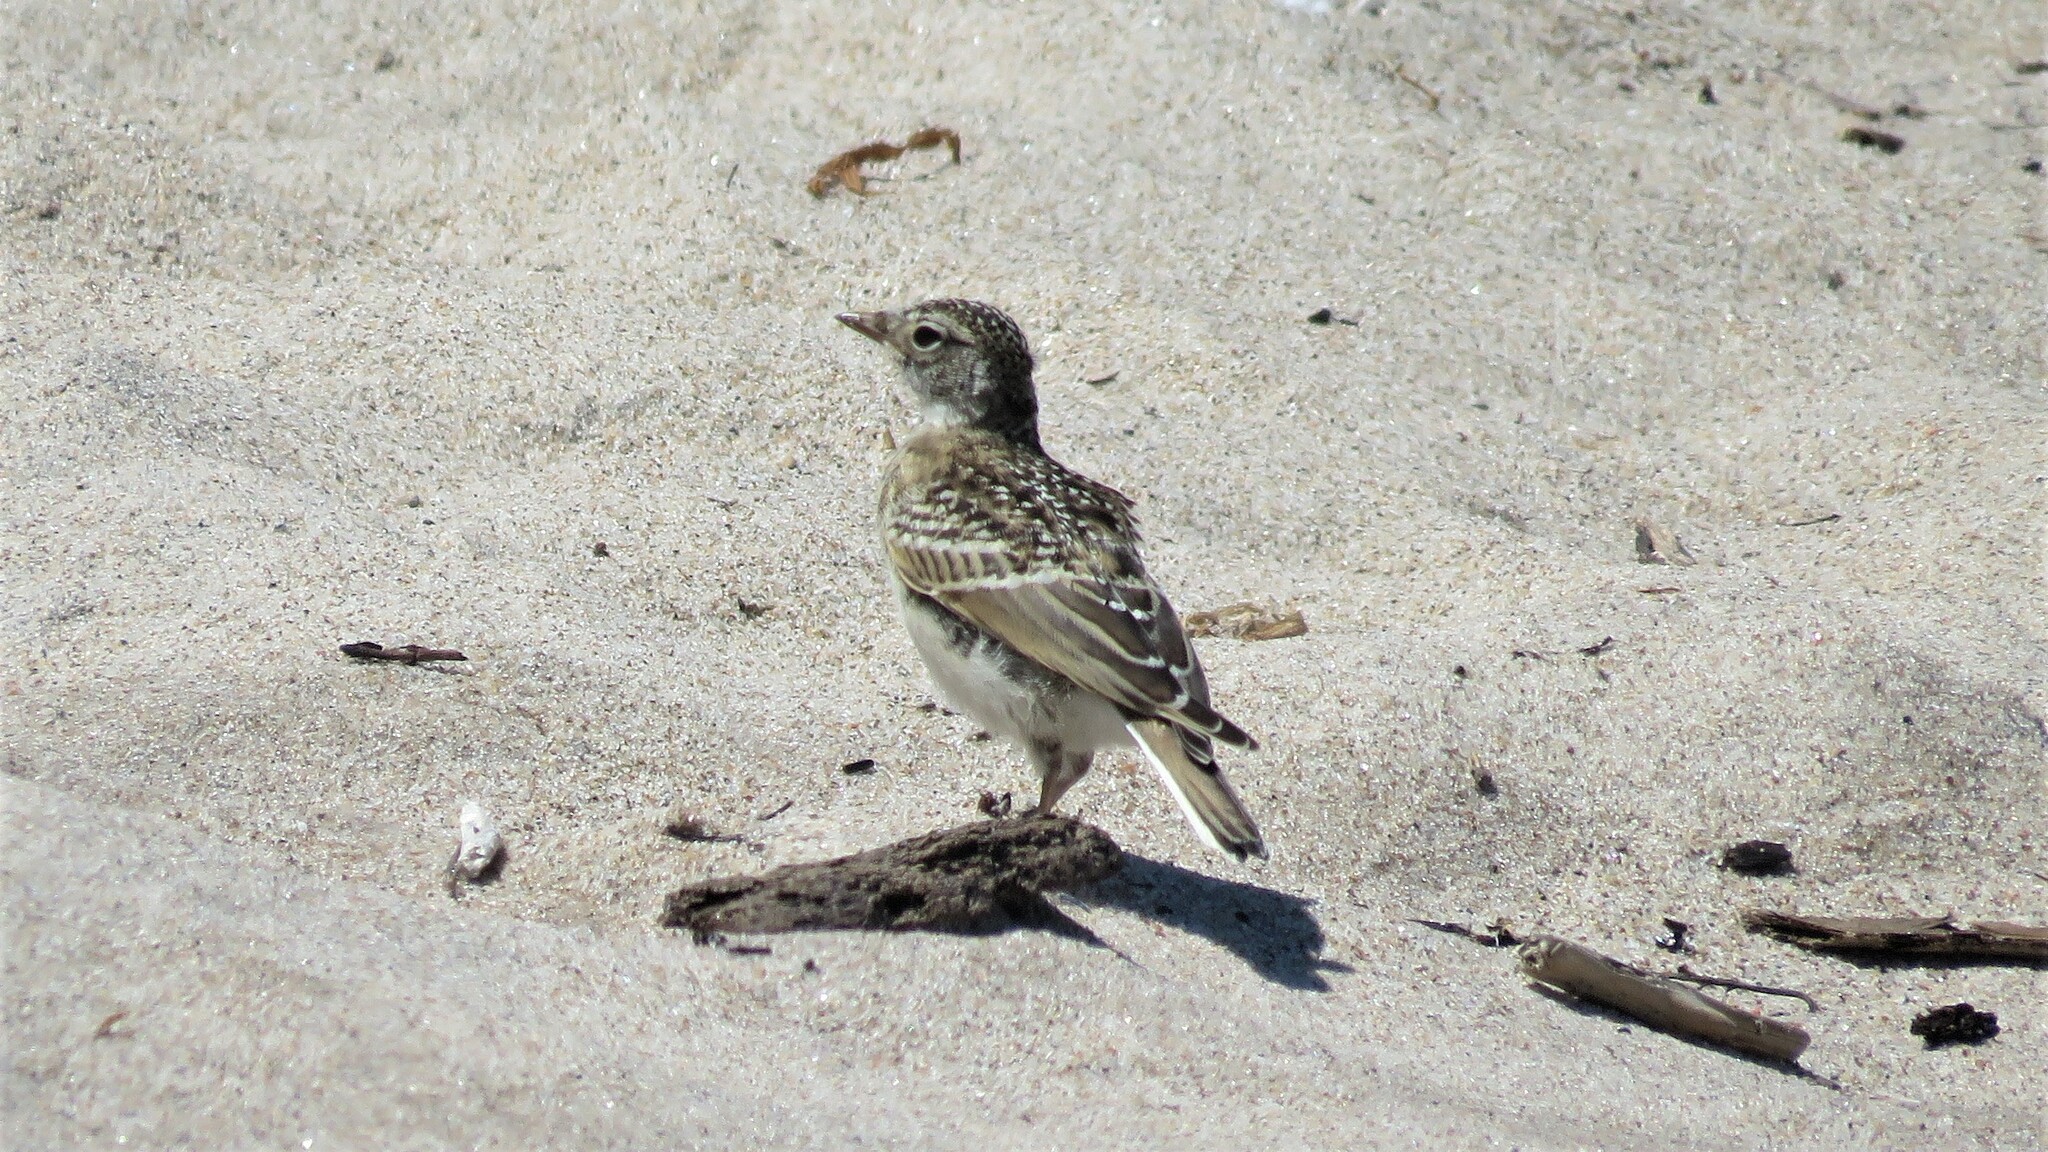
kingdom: Animalia
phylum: Chordata
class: Aves
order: Passeriformes
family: Alaudidae
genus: Eremophila
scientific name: Eremophila alpestris
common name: Horned lark
